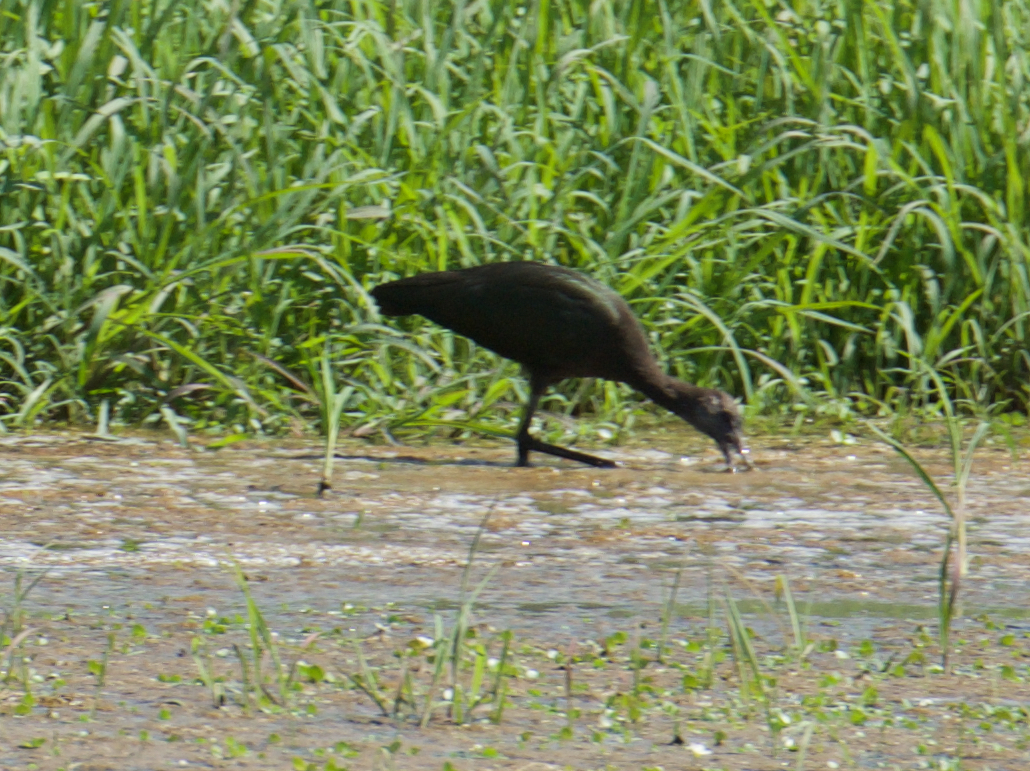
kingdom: Animalia
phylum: Chordata
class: Aves
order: Pelecaniformes
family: Threskiornithidae
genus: Plegadis
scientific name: Plegadis chihi
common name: White-faced ibis
